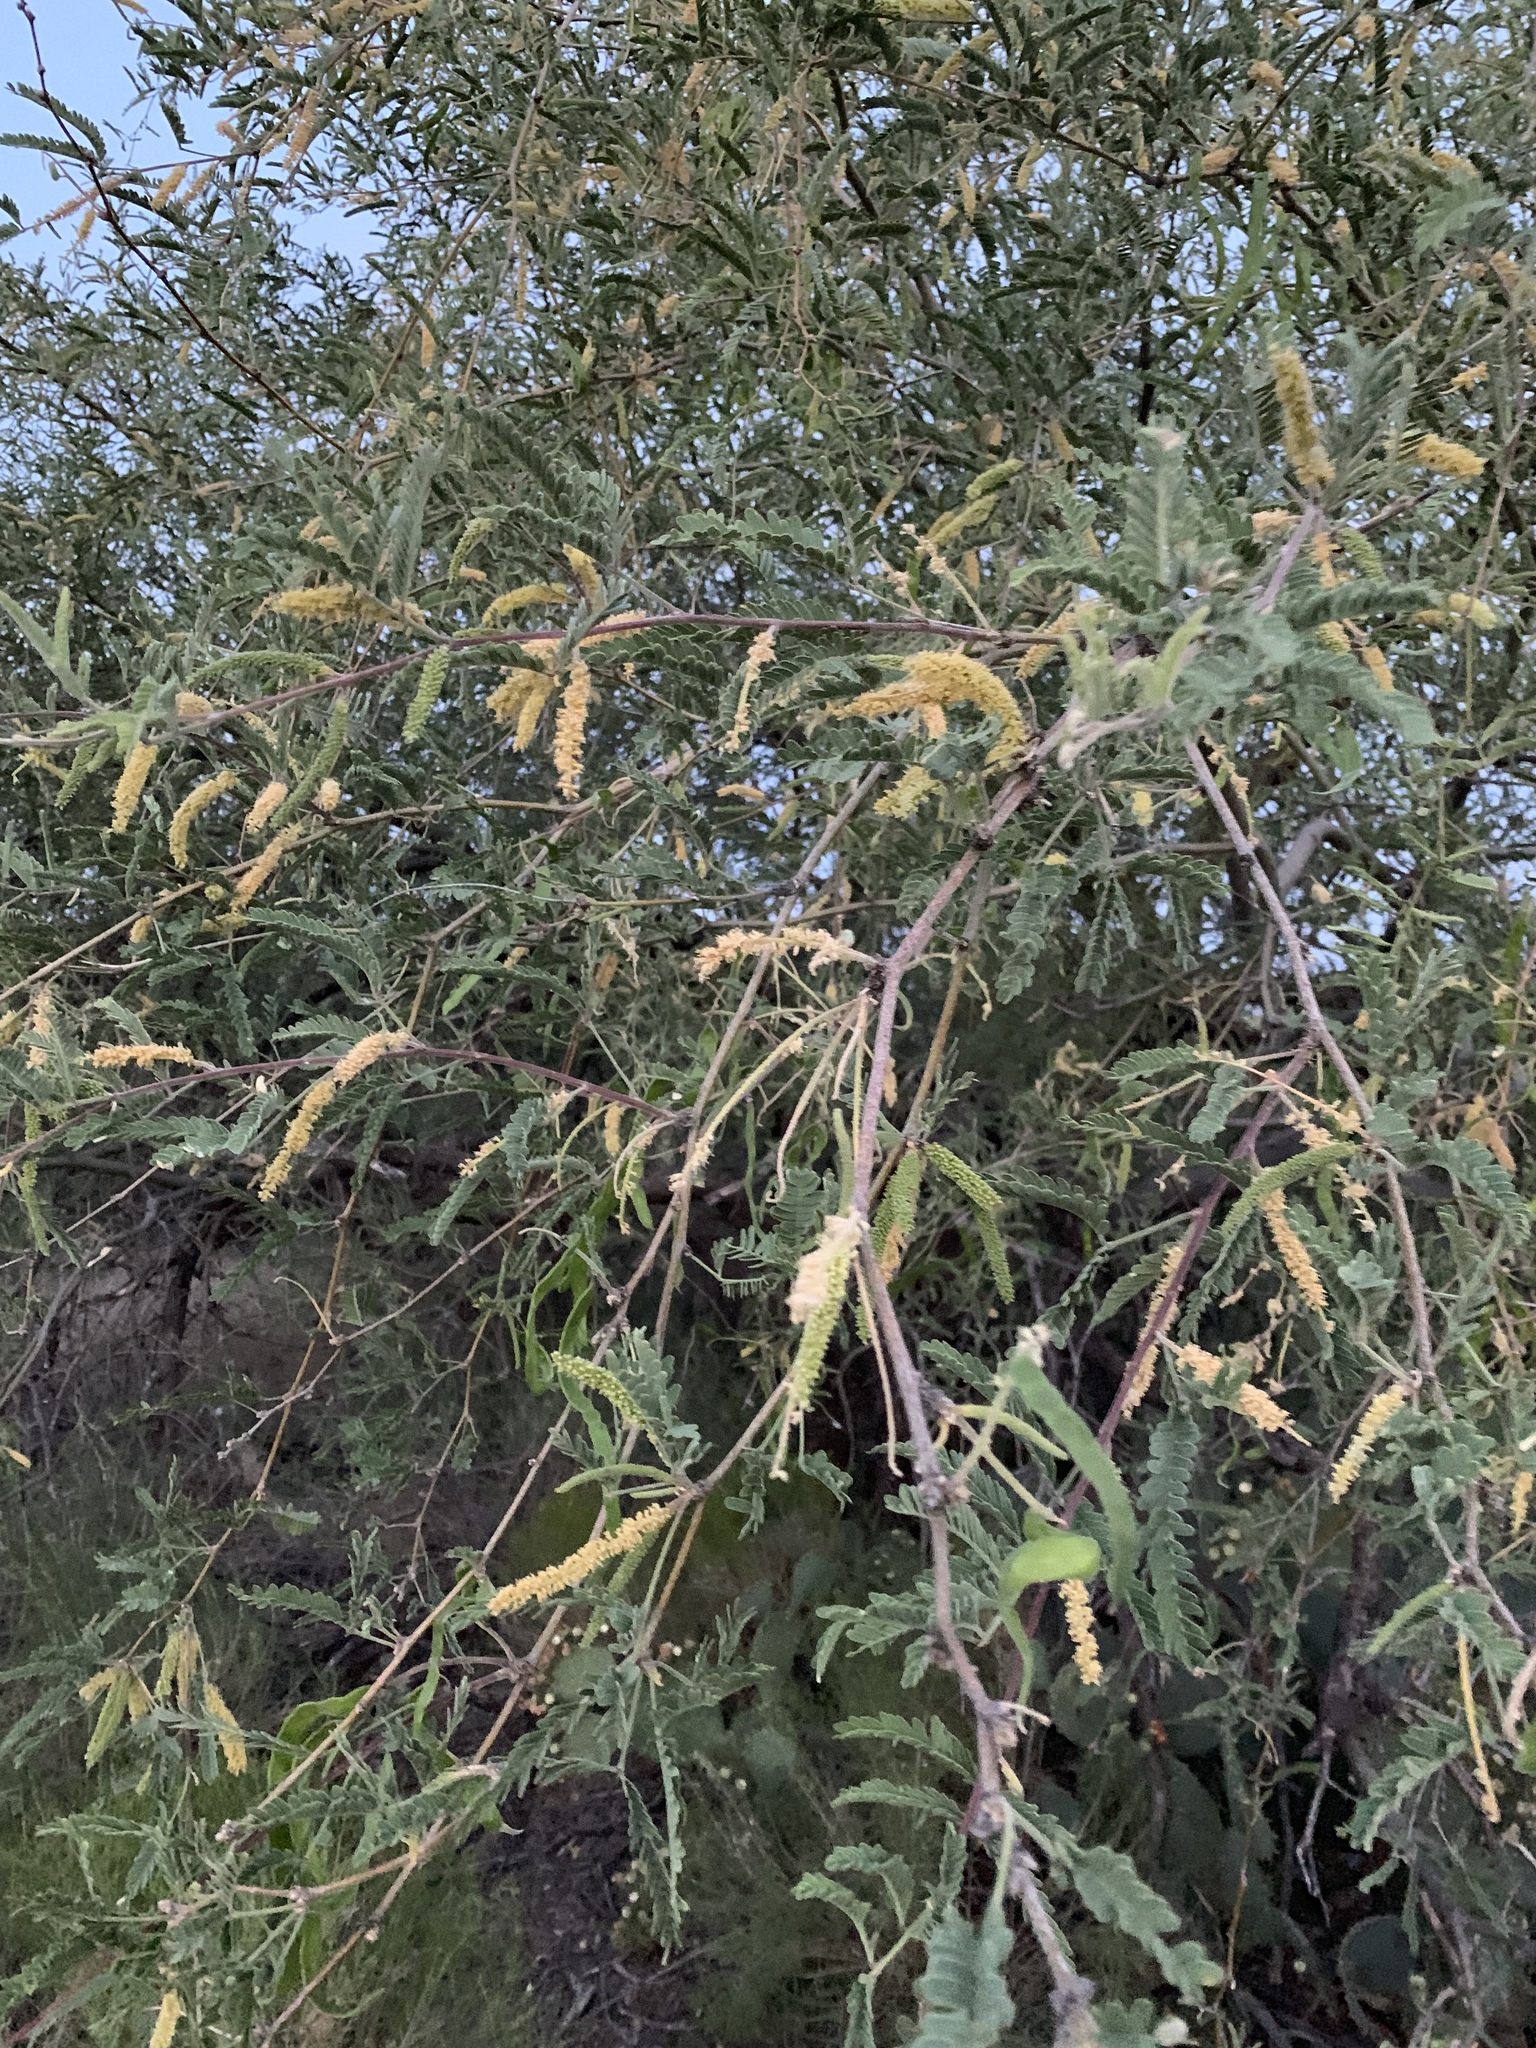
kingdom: Plantae
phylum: Tracheophyta
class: Magnoliopsida
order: Fabales
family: Fabaceae
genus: Prosopis
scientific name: Prosopis velutina
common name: Velvet mesquite
